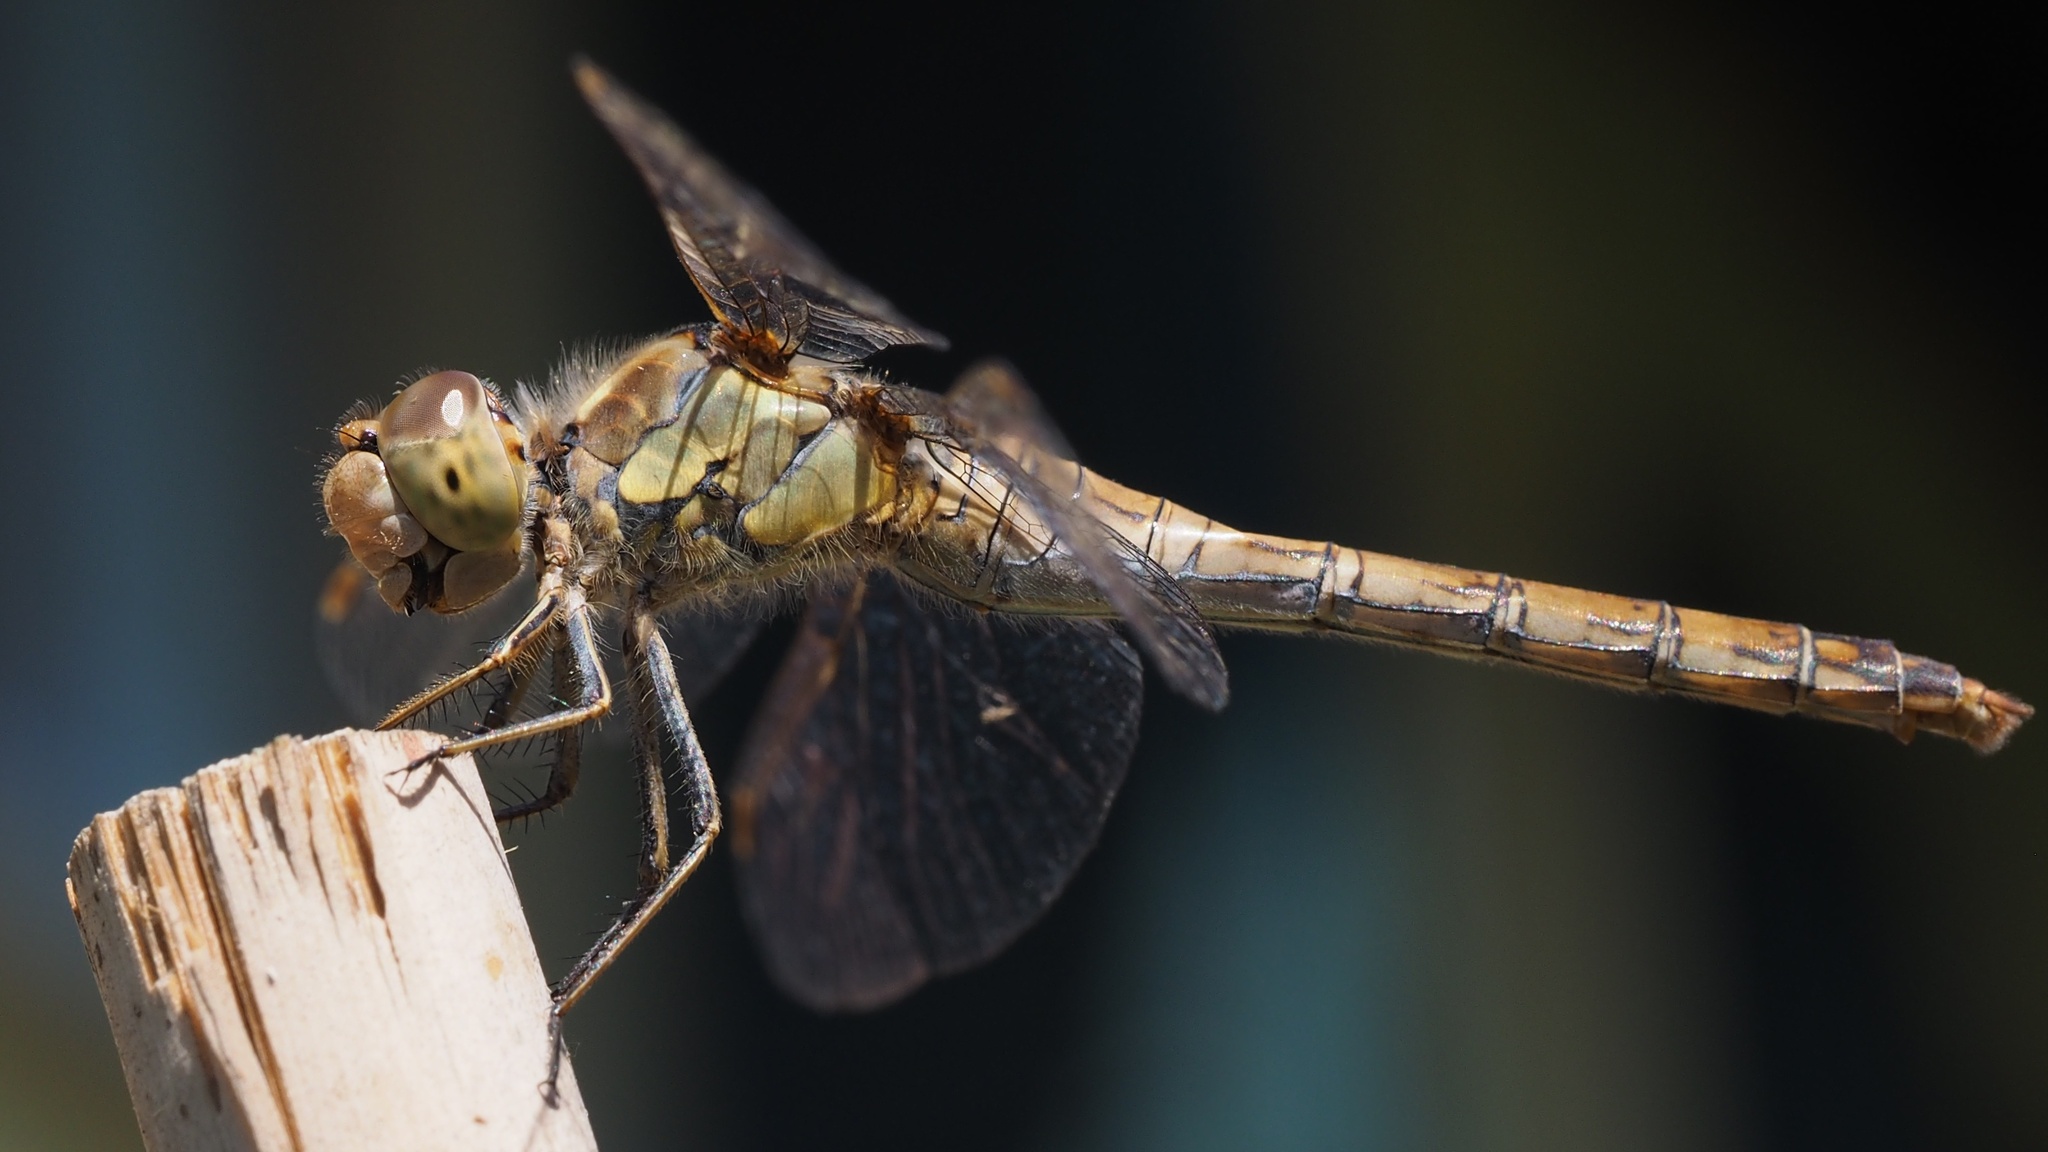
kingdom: Animalia
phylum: Arthropoda
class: Insecta
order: Odonata
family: Libellulidae
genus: Sympetrum
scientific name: Sympetrum striolatum
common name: Common darter
